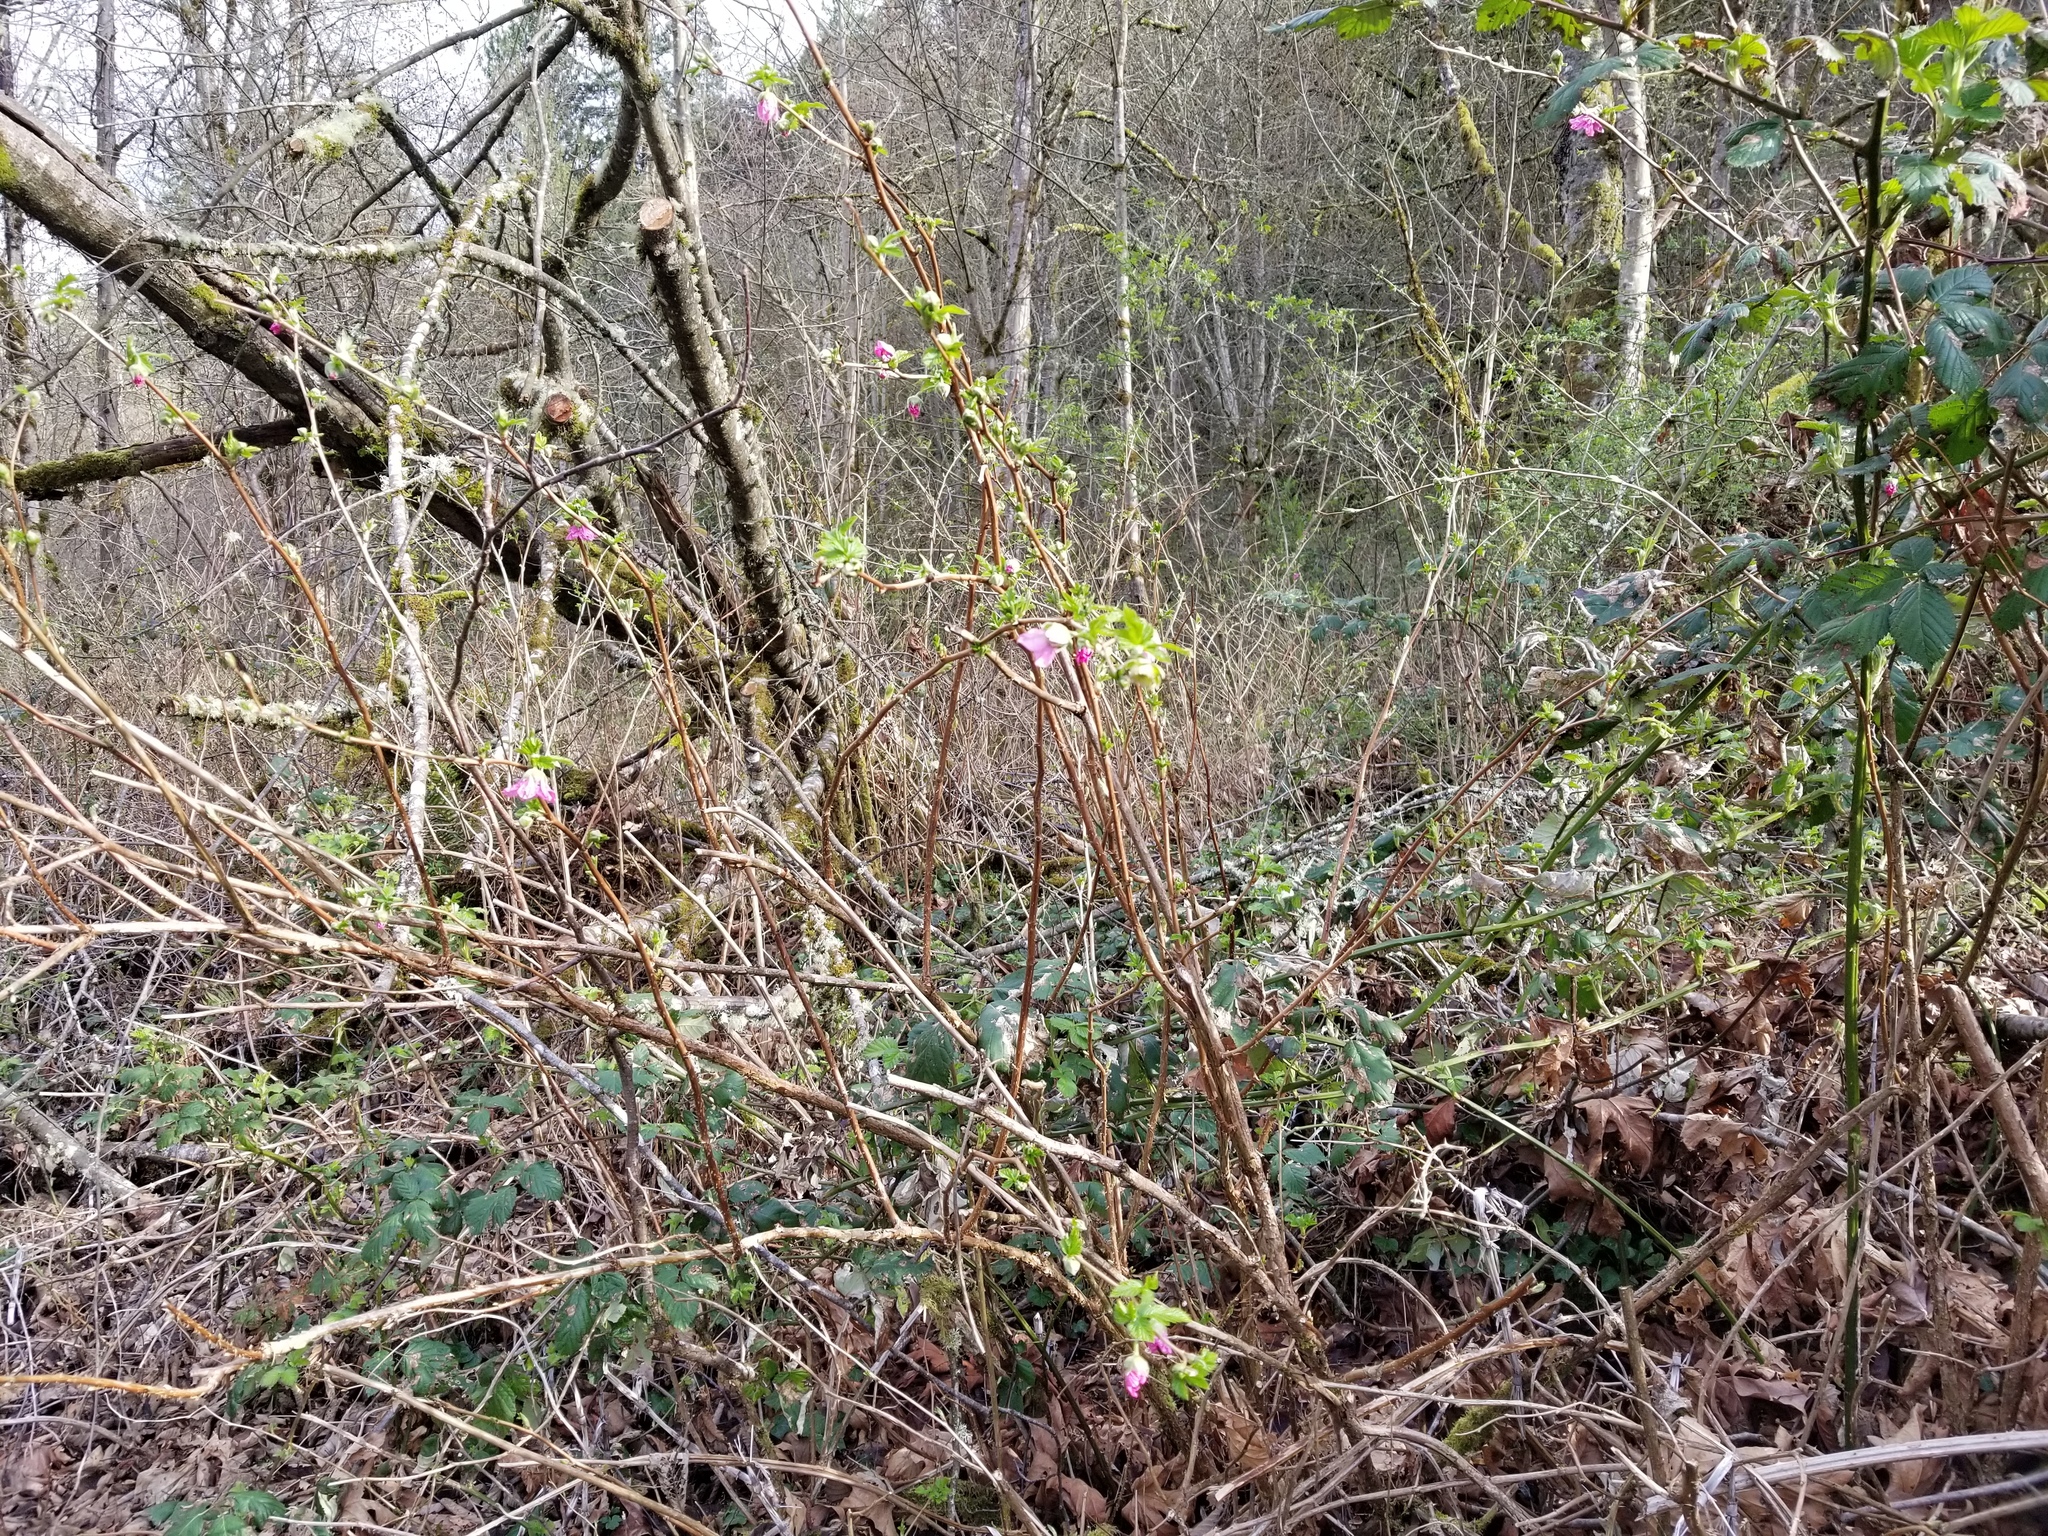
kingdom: Plantae
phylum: Tracheophyta
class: Magnoliopsida
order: Rosales
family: Rosaceae
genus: Rubus
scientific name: Rubus spectabilis
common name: Salmonberry
